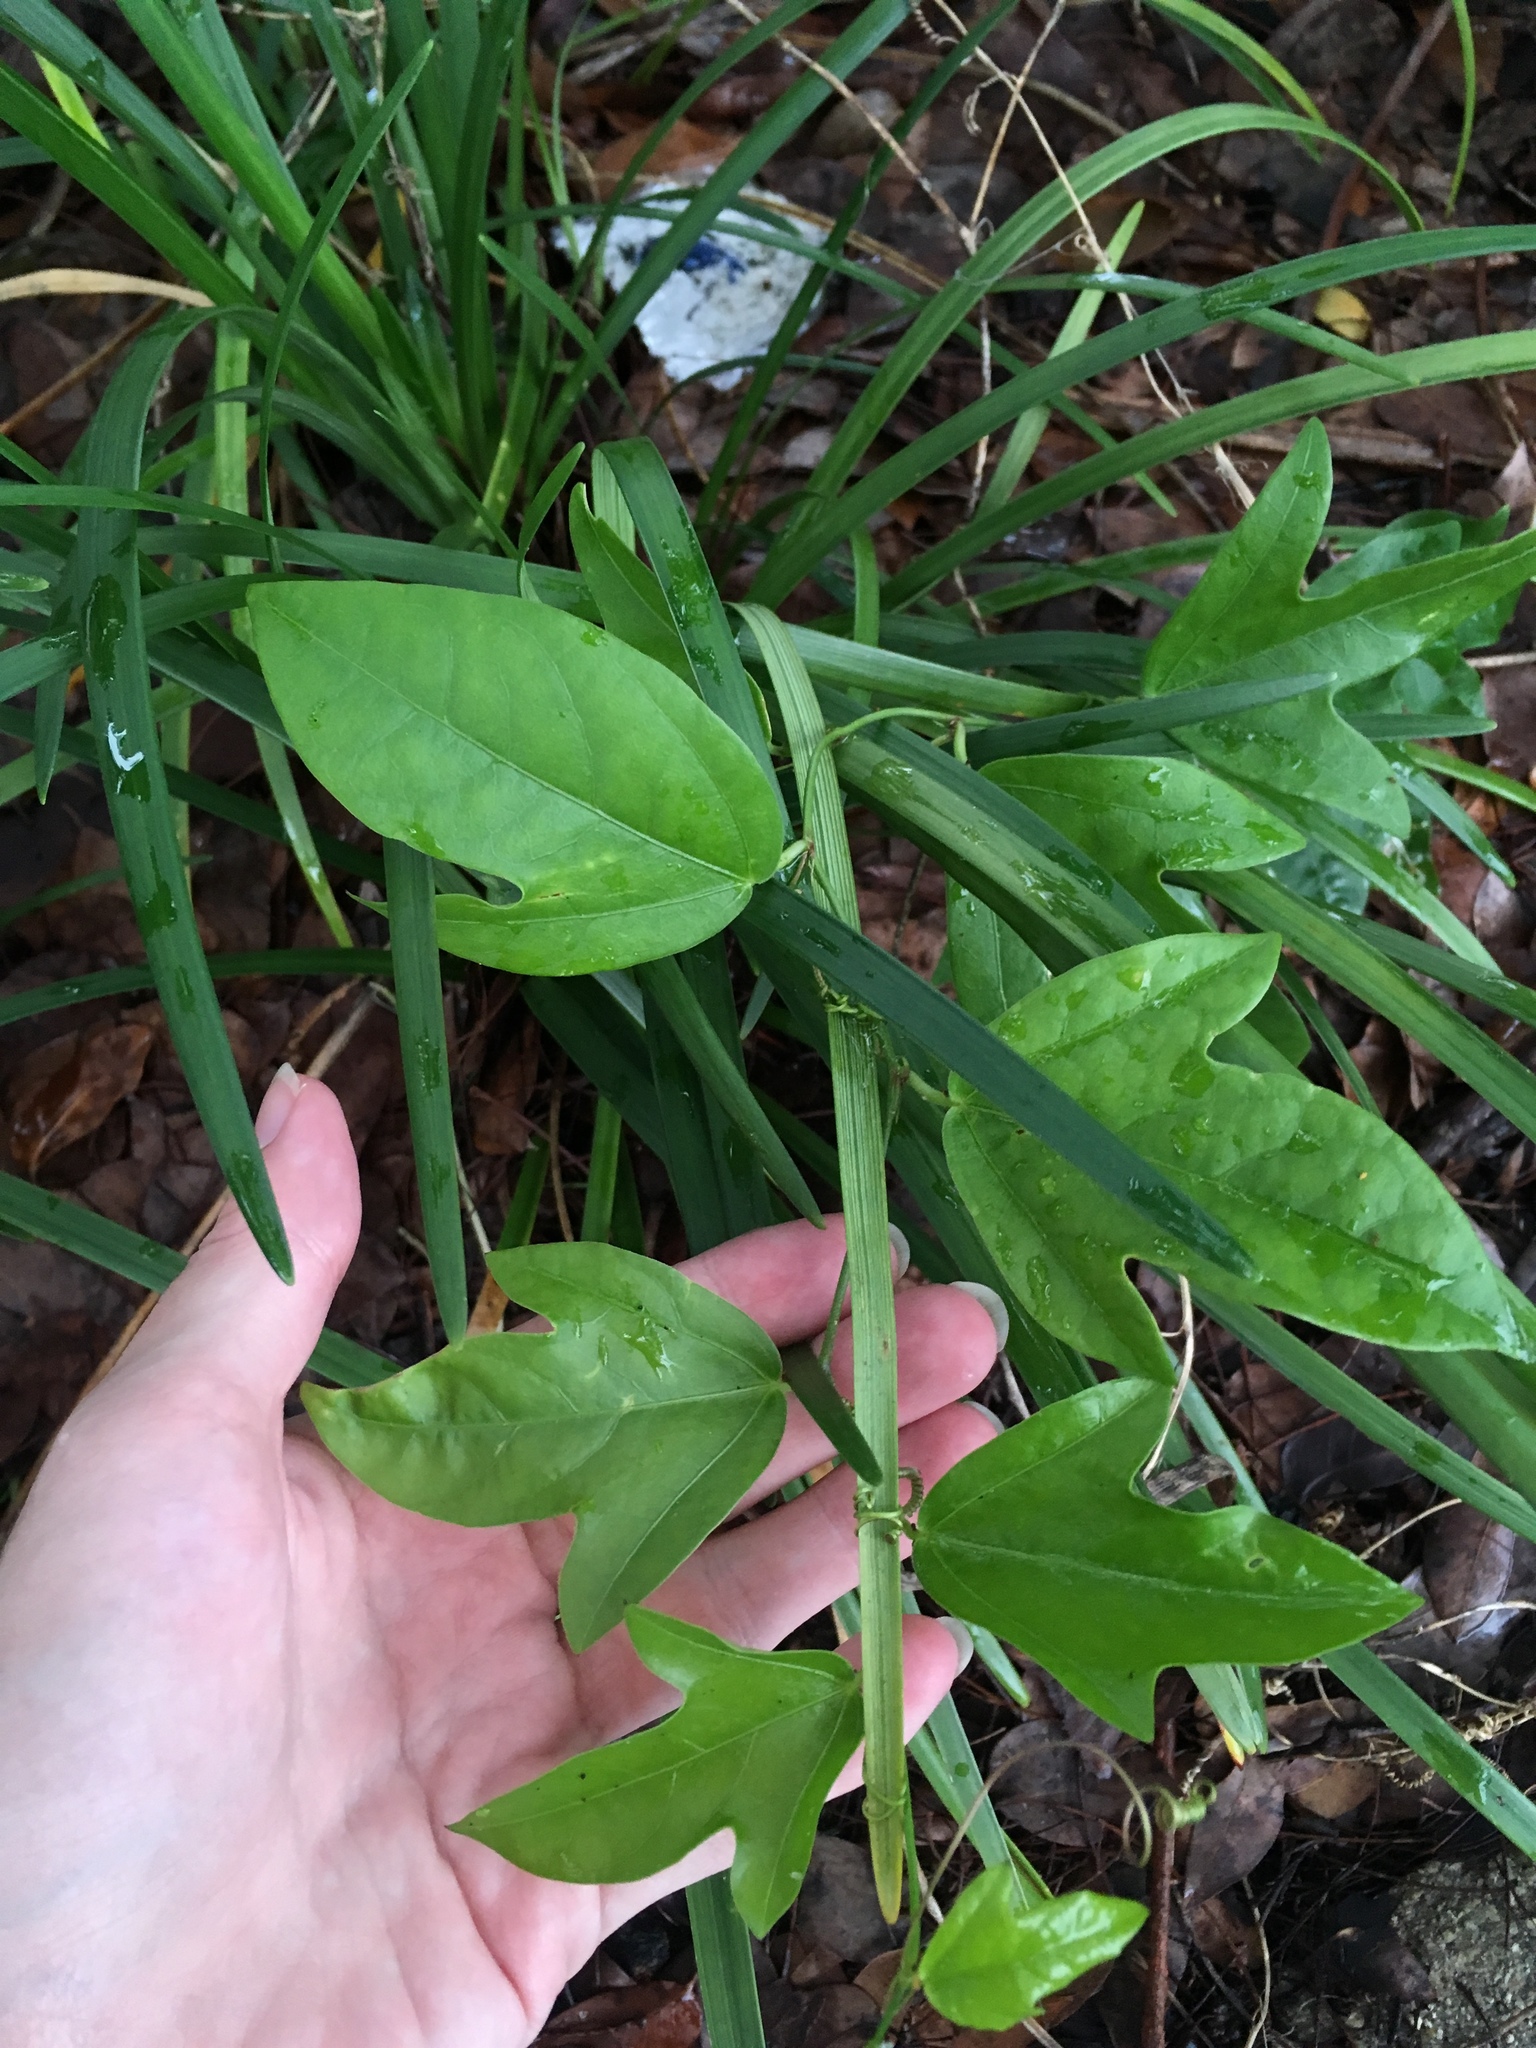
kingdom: Plantae
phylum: Tracheophyta
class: Magnoliopsida
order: Malpighiales
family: Passifloraceae
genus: Passiflora
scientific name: Passiflora pallida
